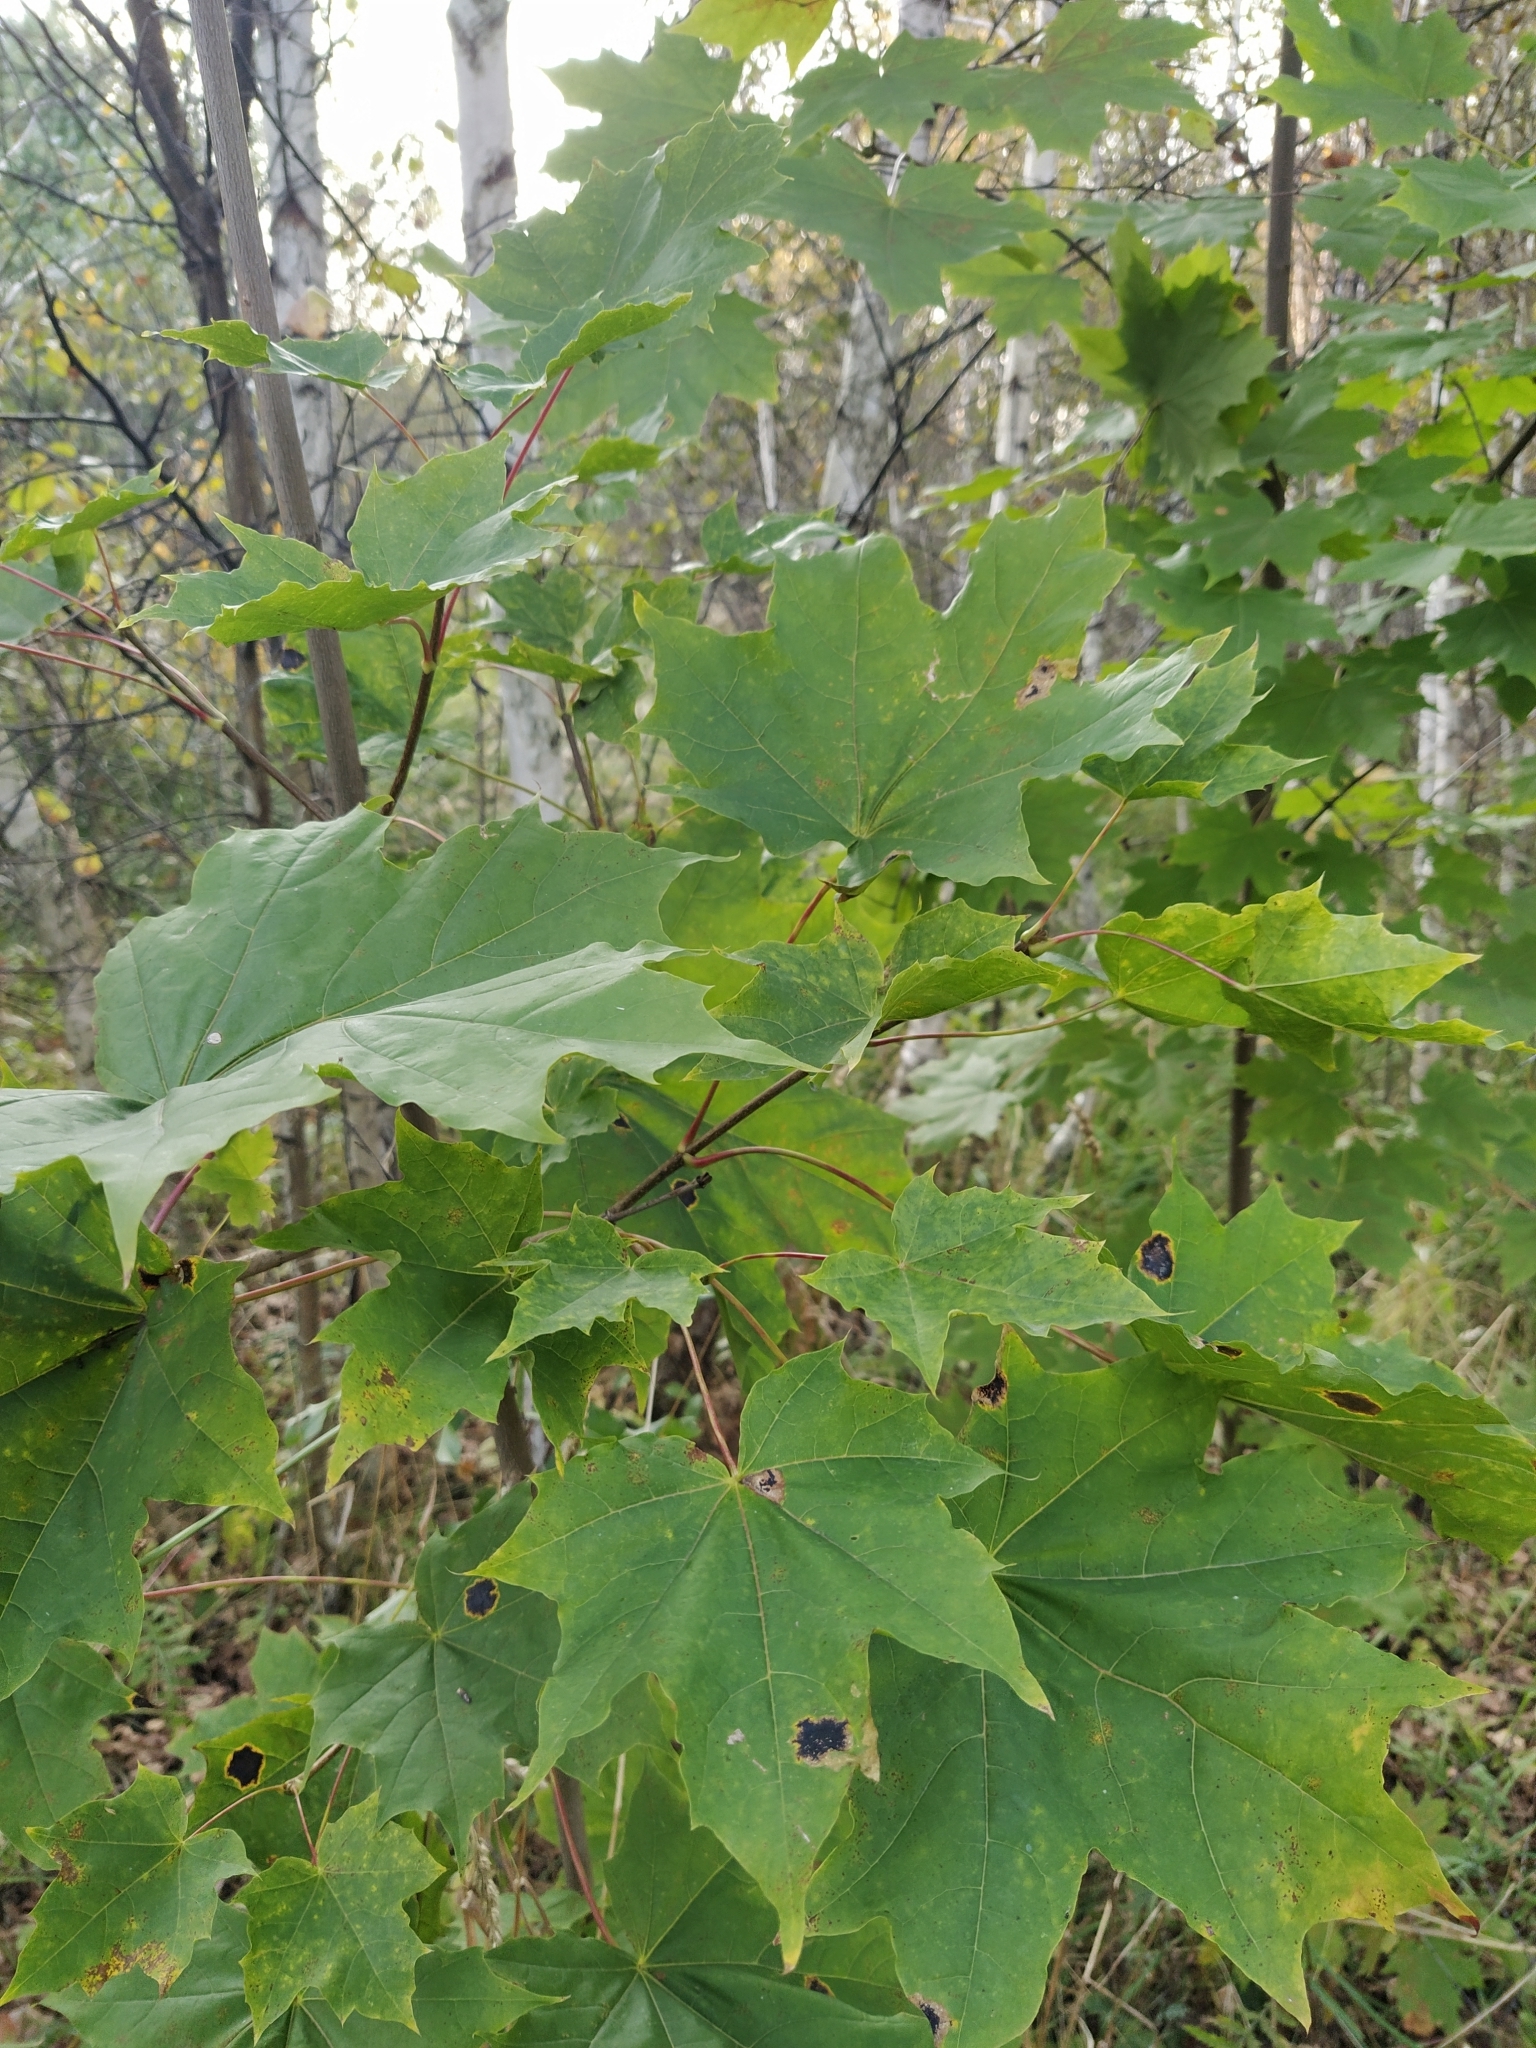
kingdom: Plantae
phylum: Tracheophyta
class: Magnoliopsida
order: Sapindales
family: Sapindaceae
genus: Acer
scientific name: Acer platanoides
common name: Norway maple
